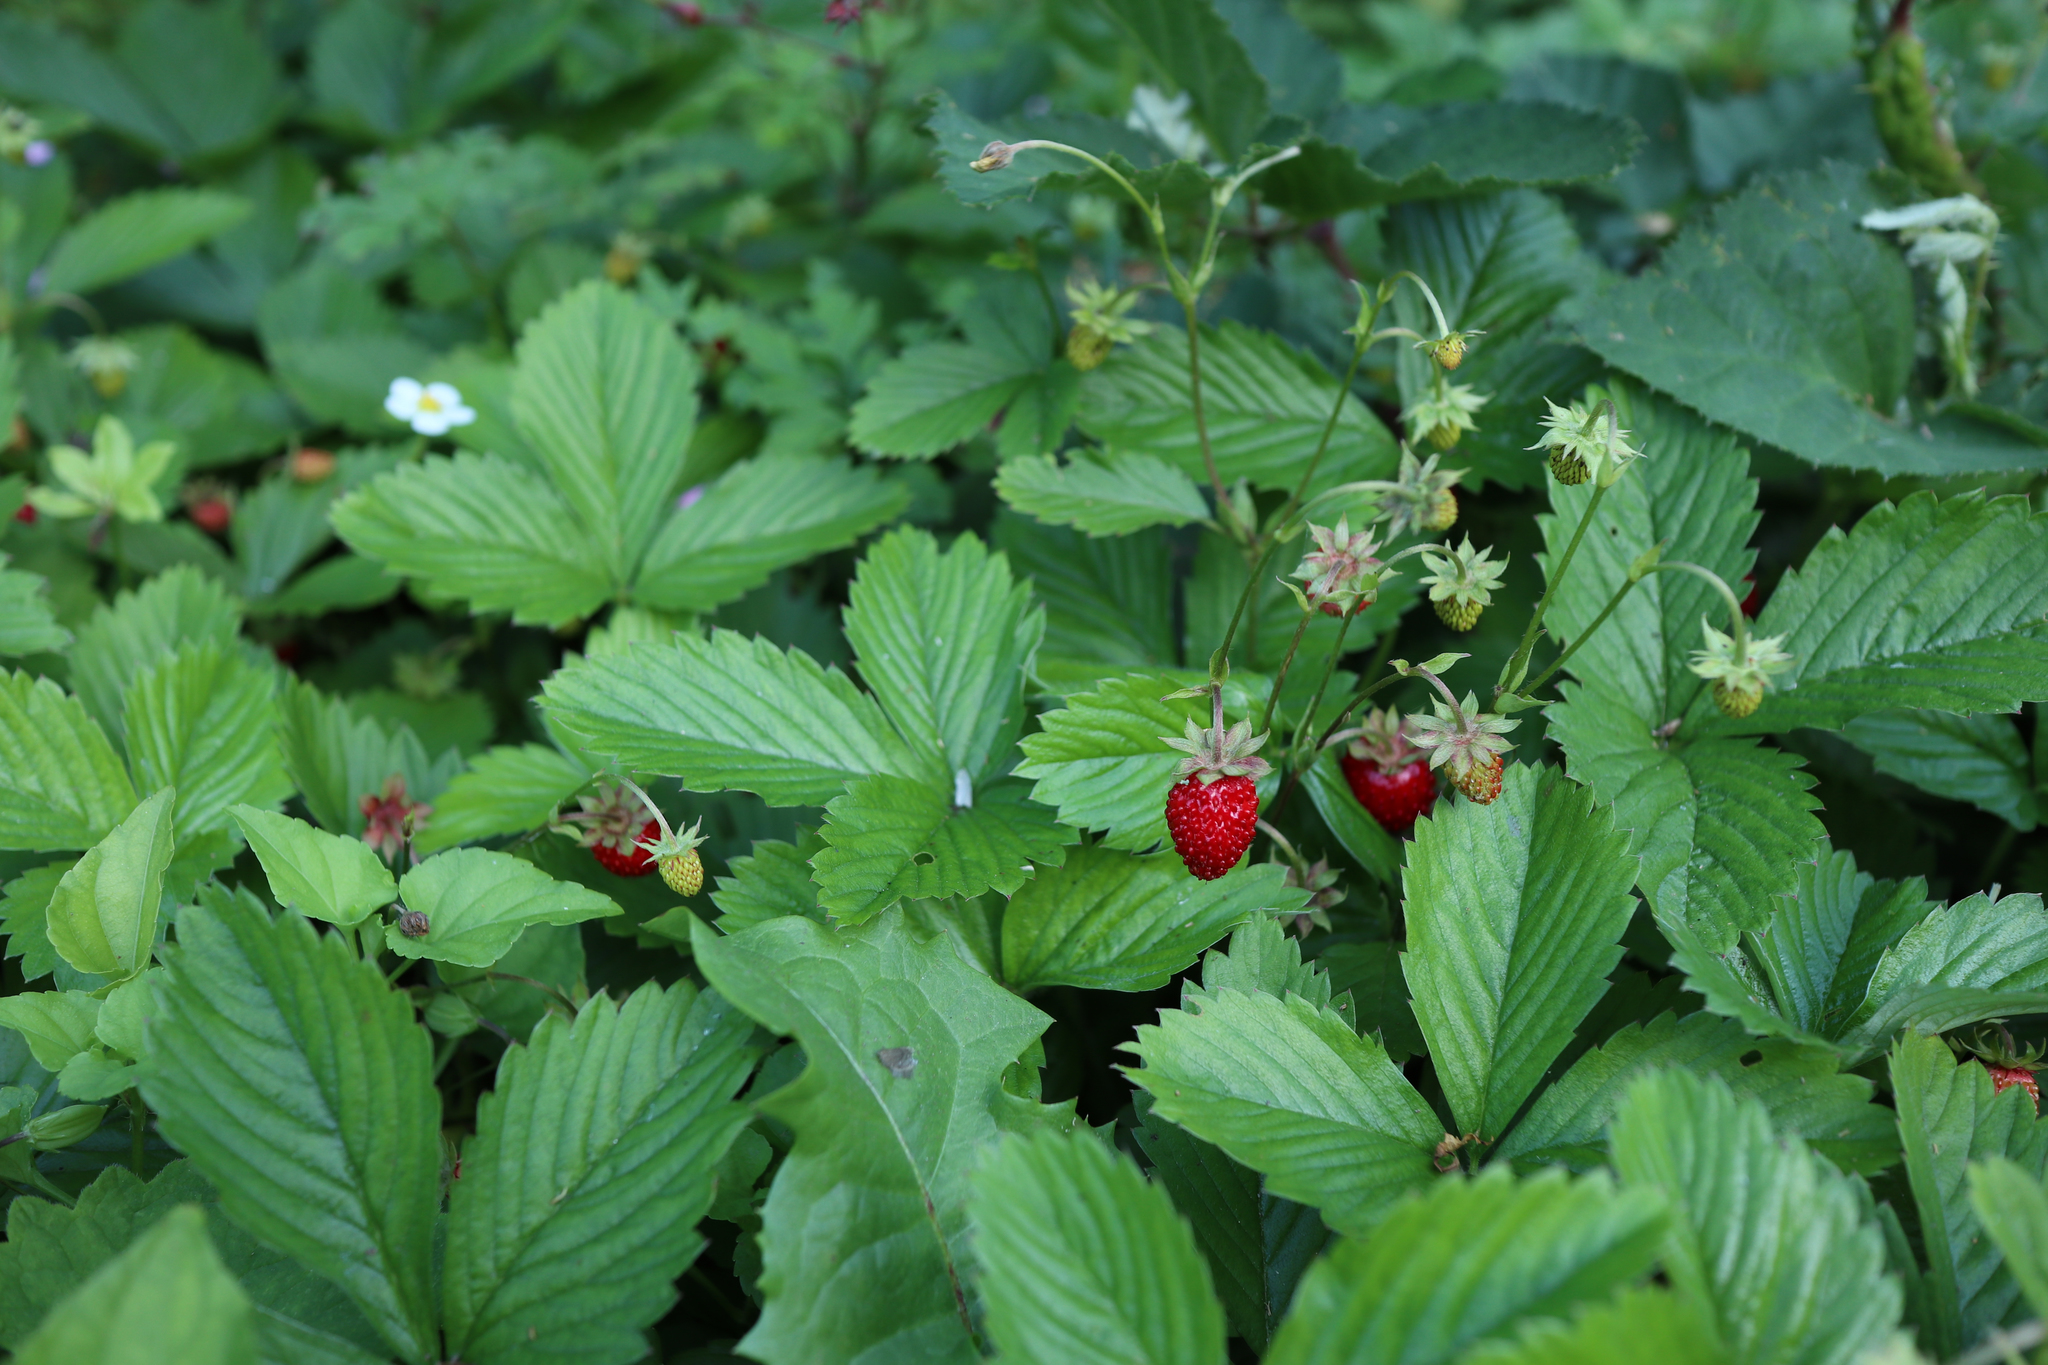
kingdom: Plantae
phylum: Tracheophyta
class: Magnoliopsida
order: Rosales
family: Rosaceae
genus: Fragaria
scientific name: Fragaria vesca
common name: Wild strawberry
